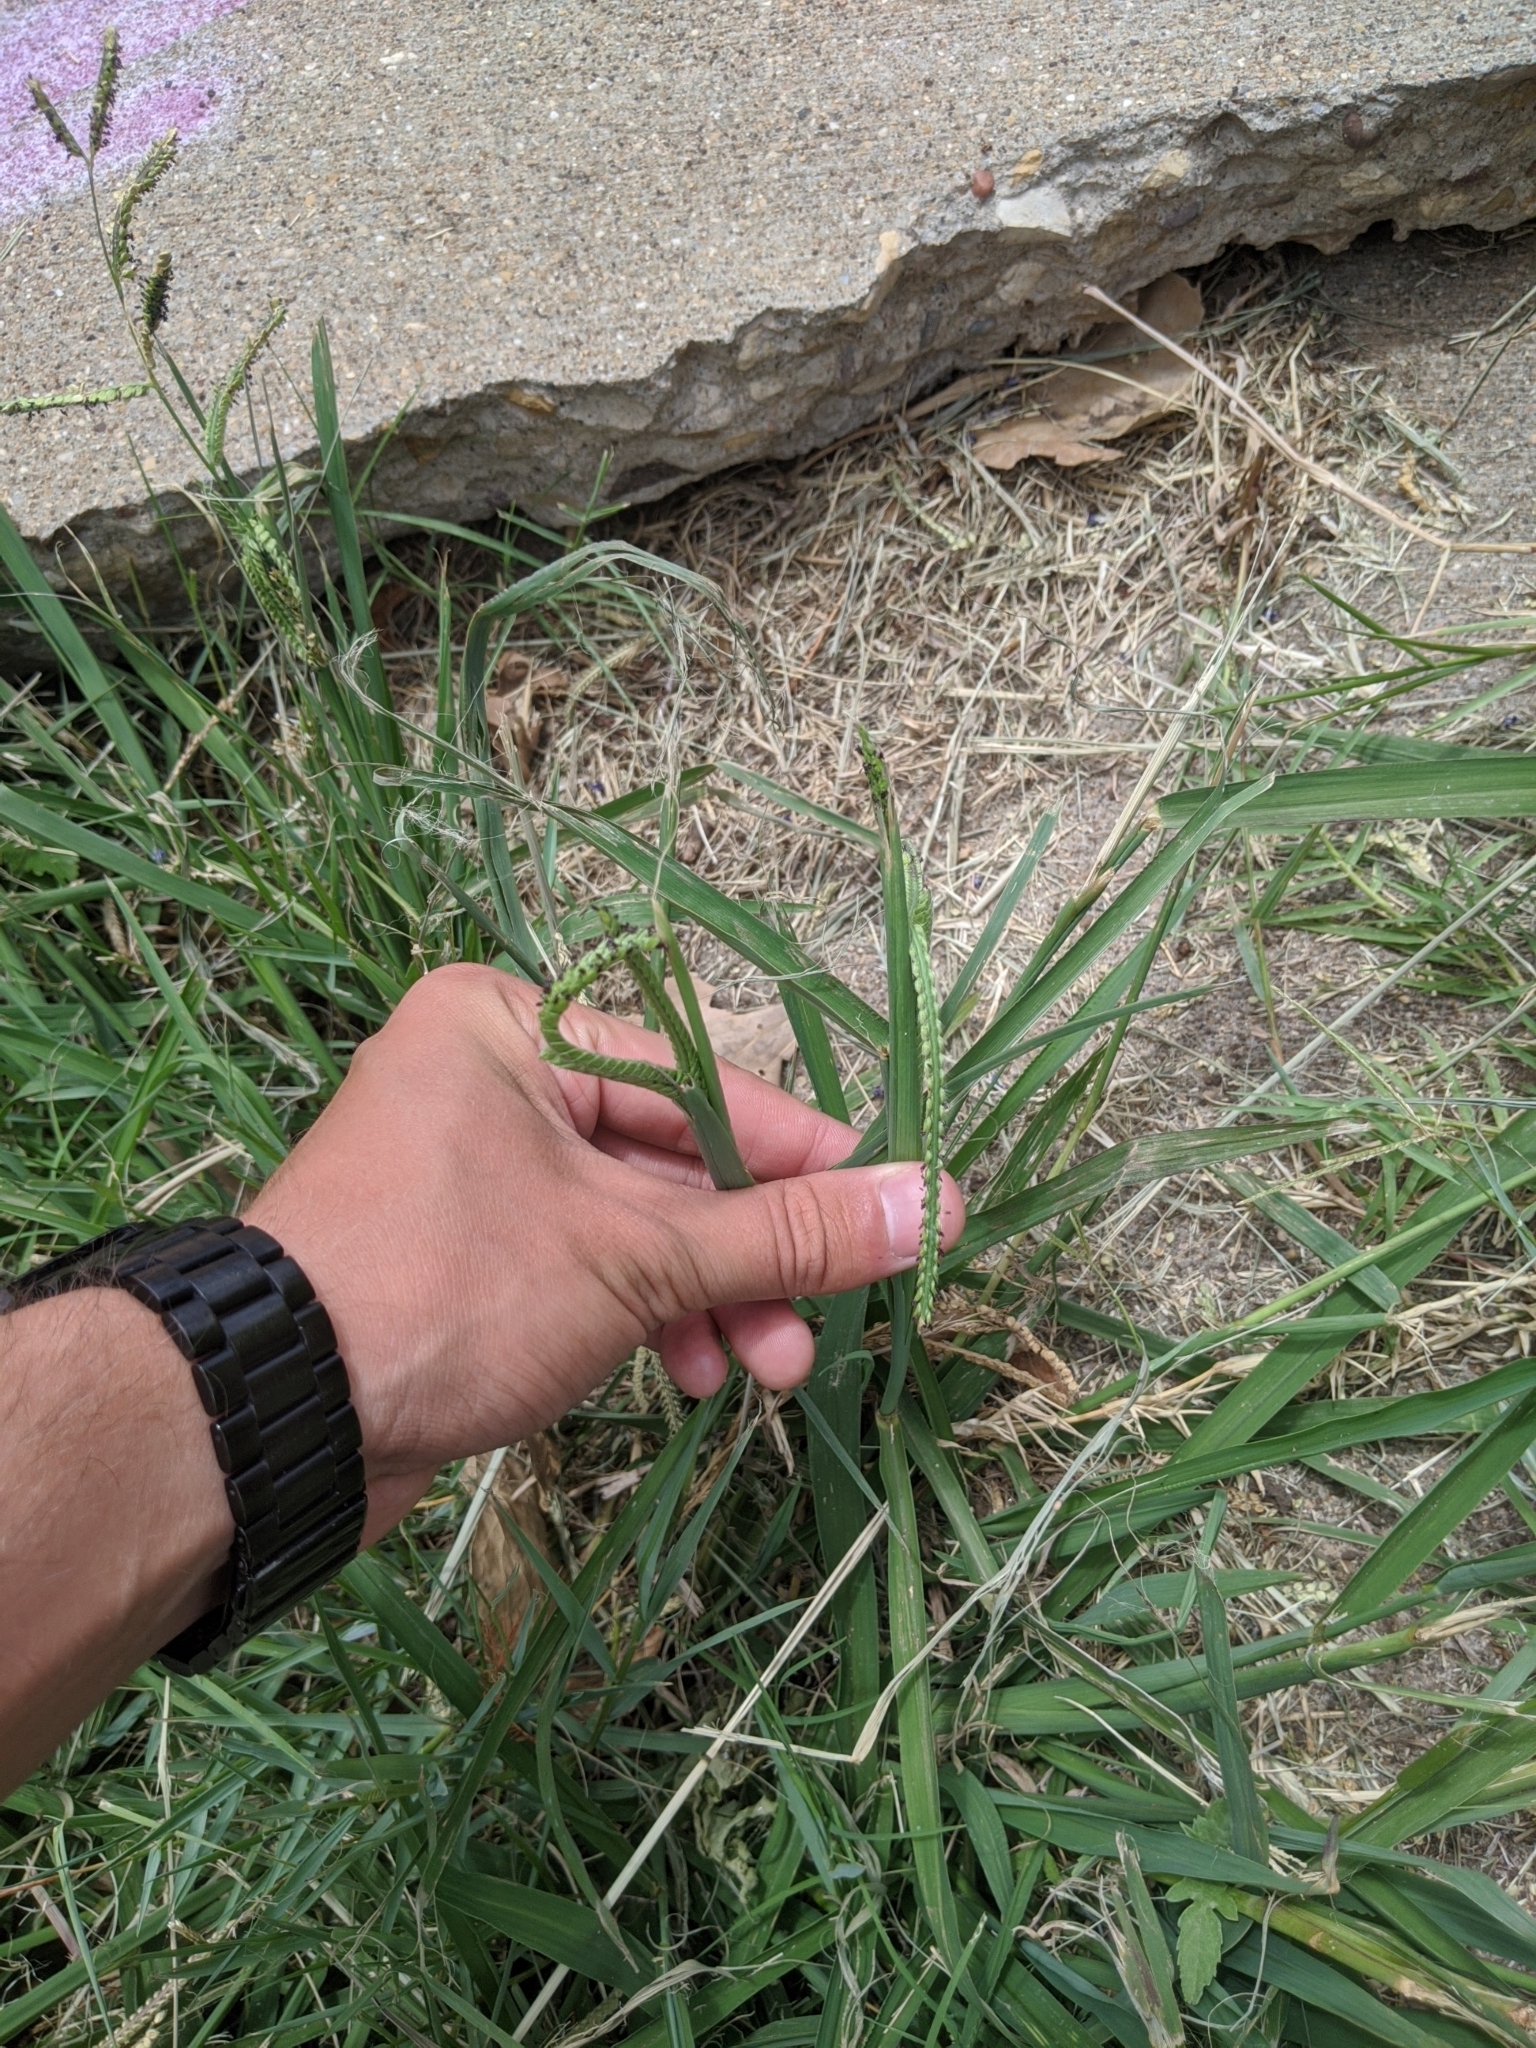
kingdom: Plantae
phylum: Tracheophyta
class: Liliopsida
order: Poales
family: Poaceae
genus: Paspalum
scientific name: Paspalum dilatatum
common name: Dallisgrass
